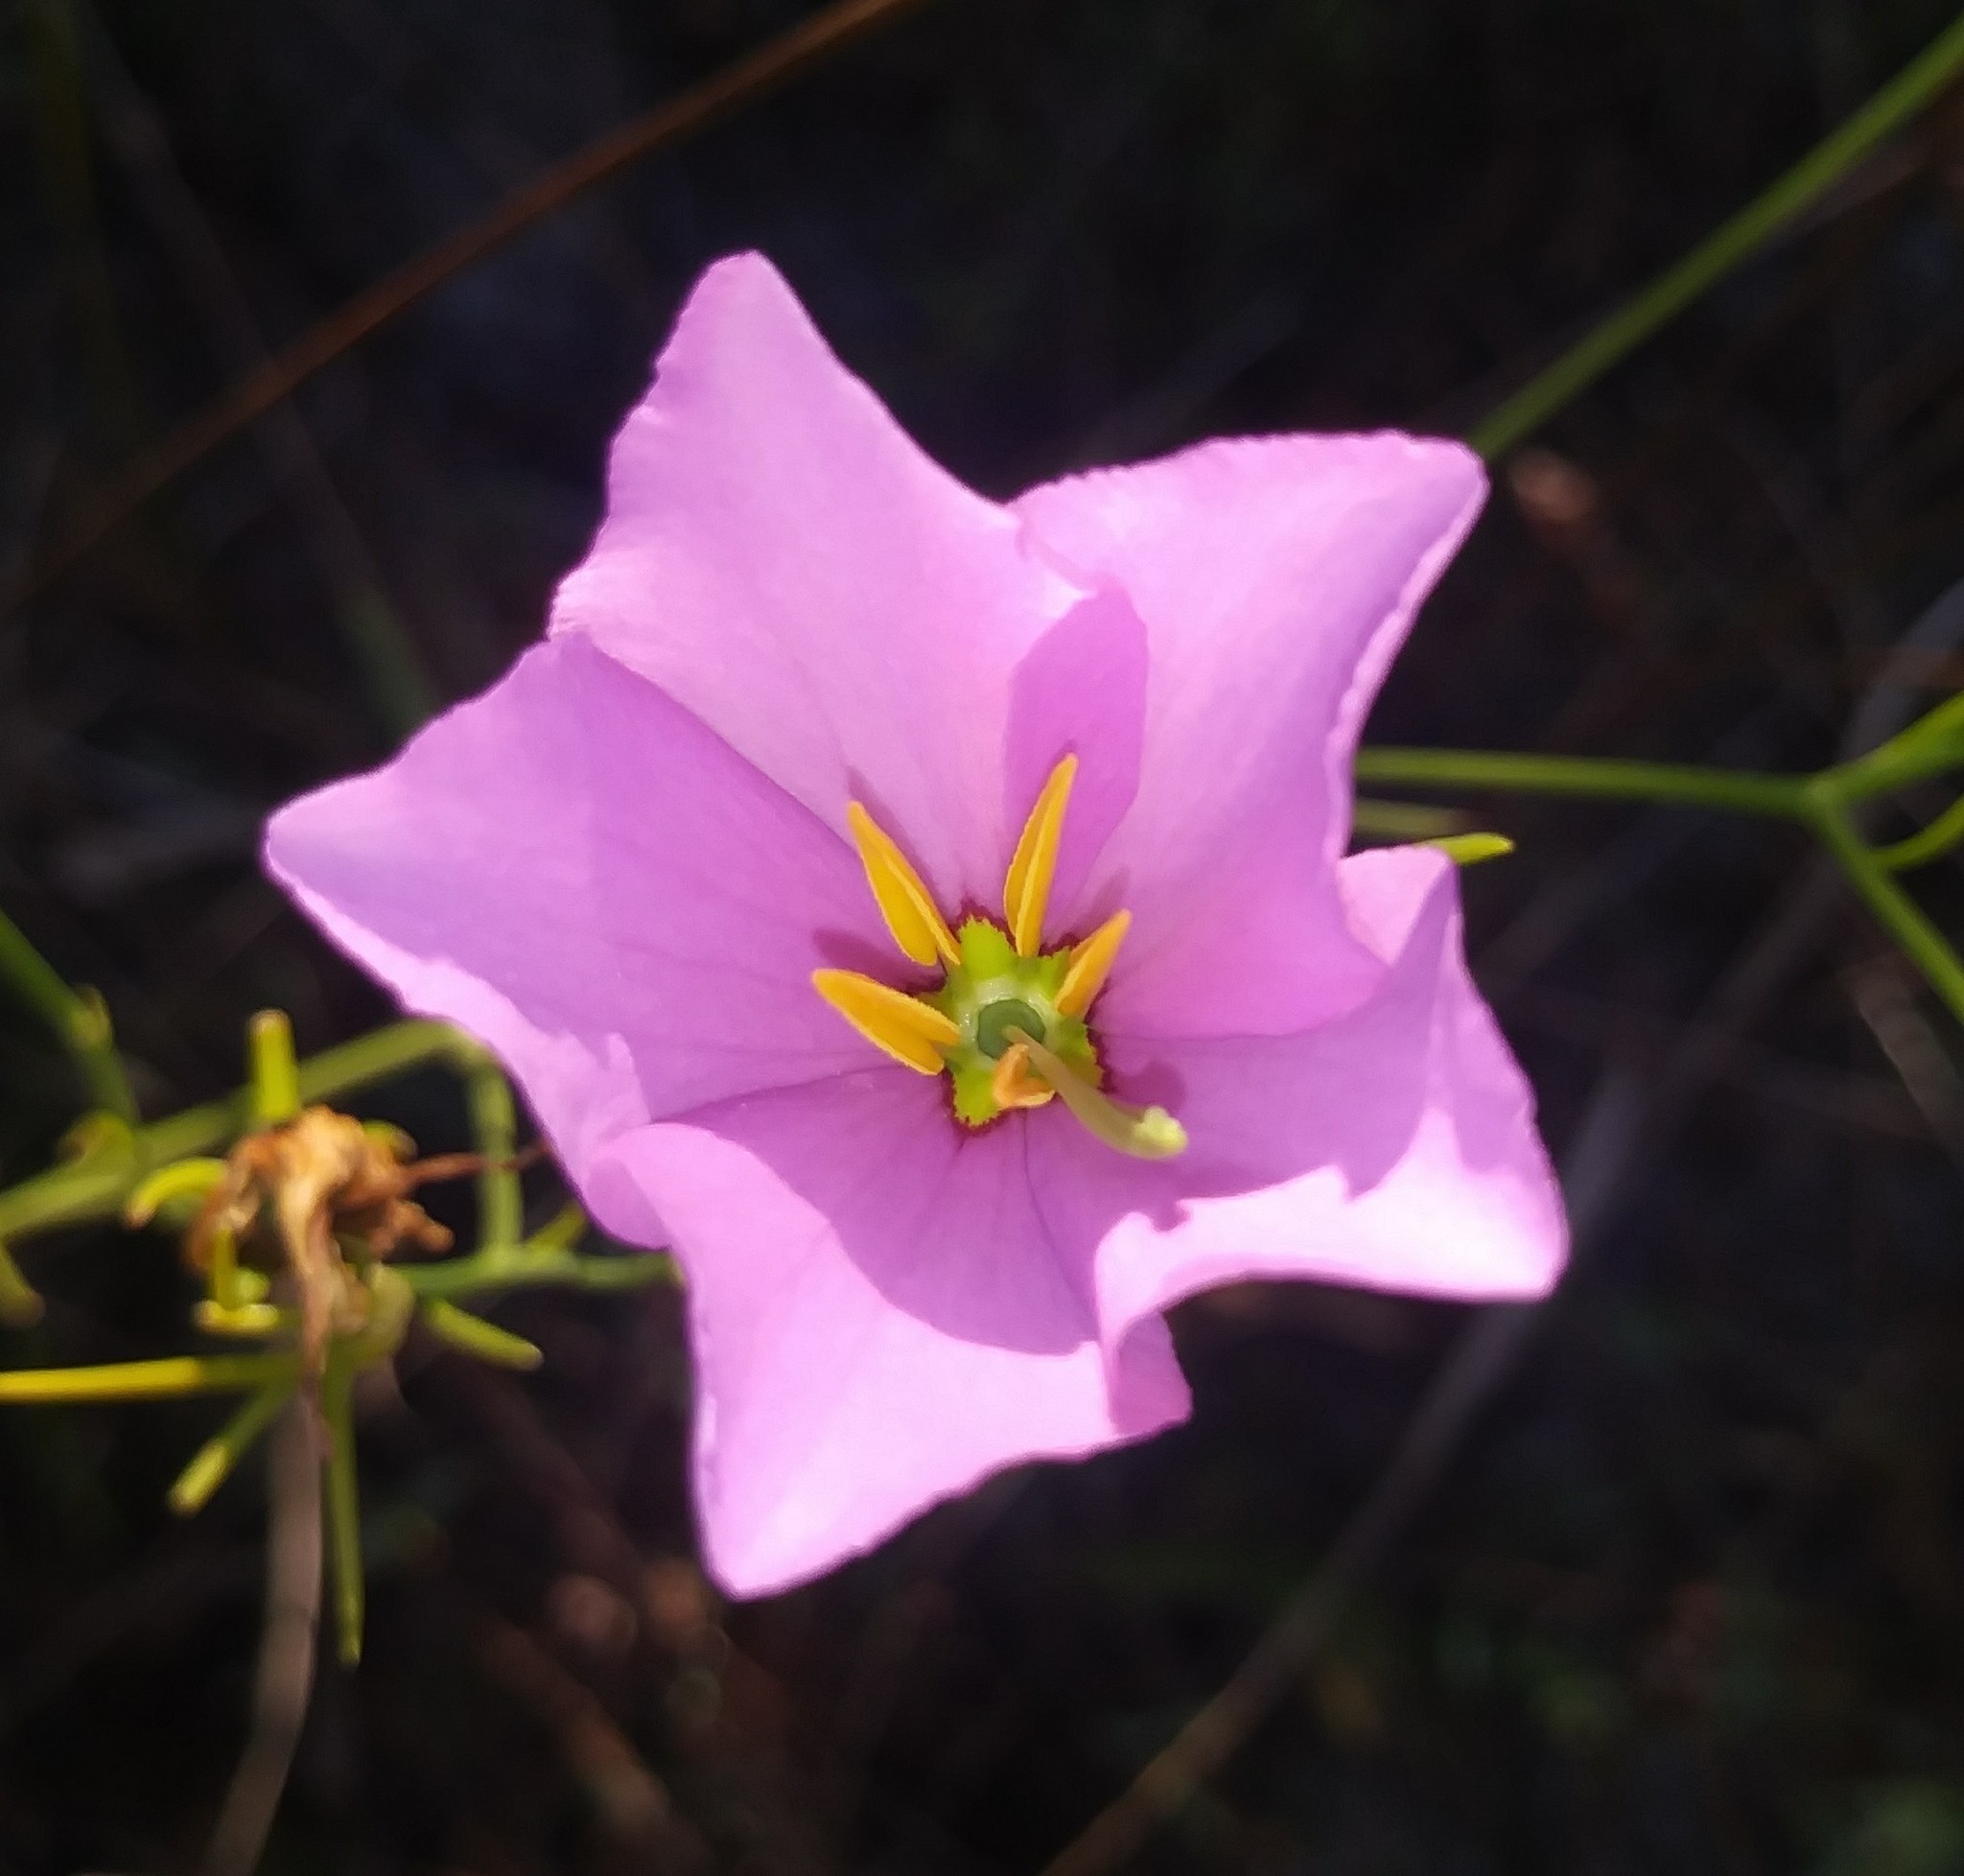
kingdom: Plantae
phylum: Tracheophyta
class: Magnoliopsida
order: Gentianales
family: Gentianaceae
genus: Sabatia
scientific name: Sabatia grandiflora
